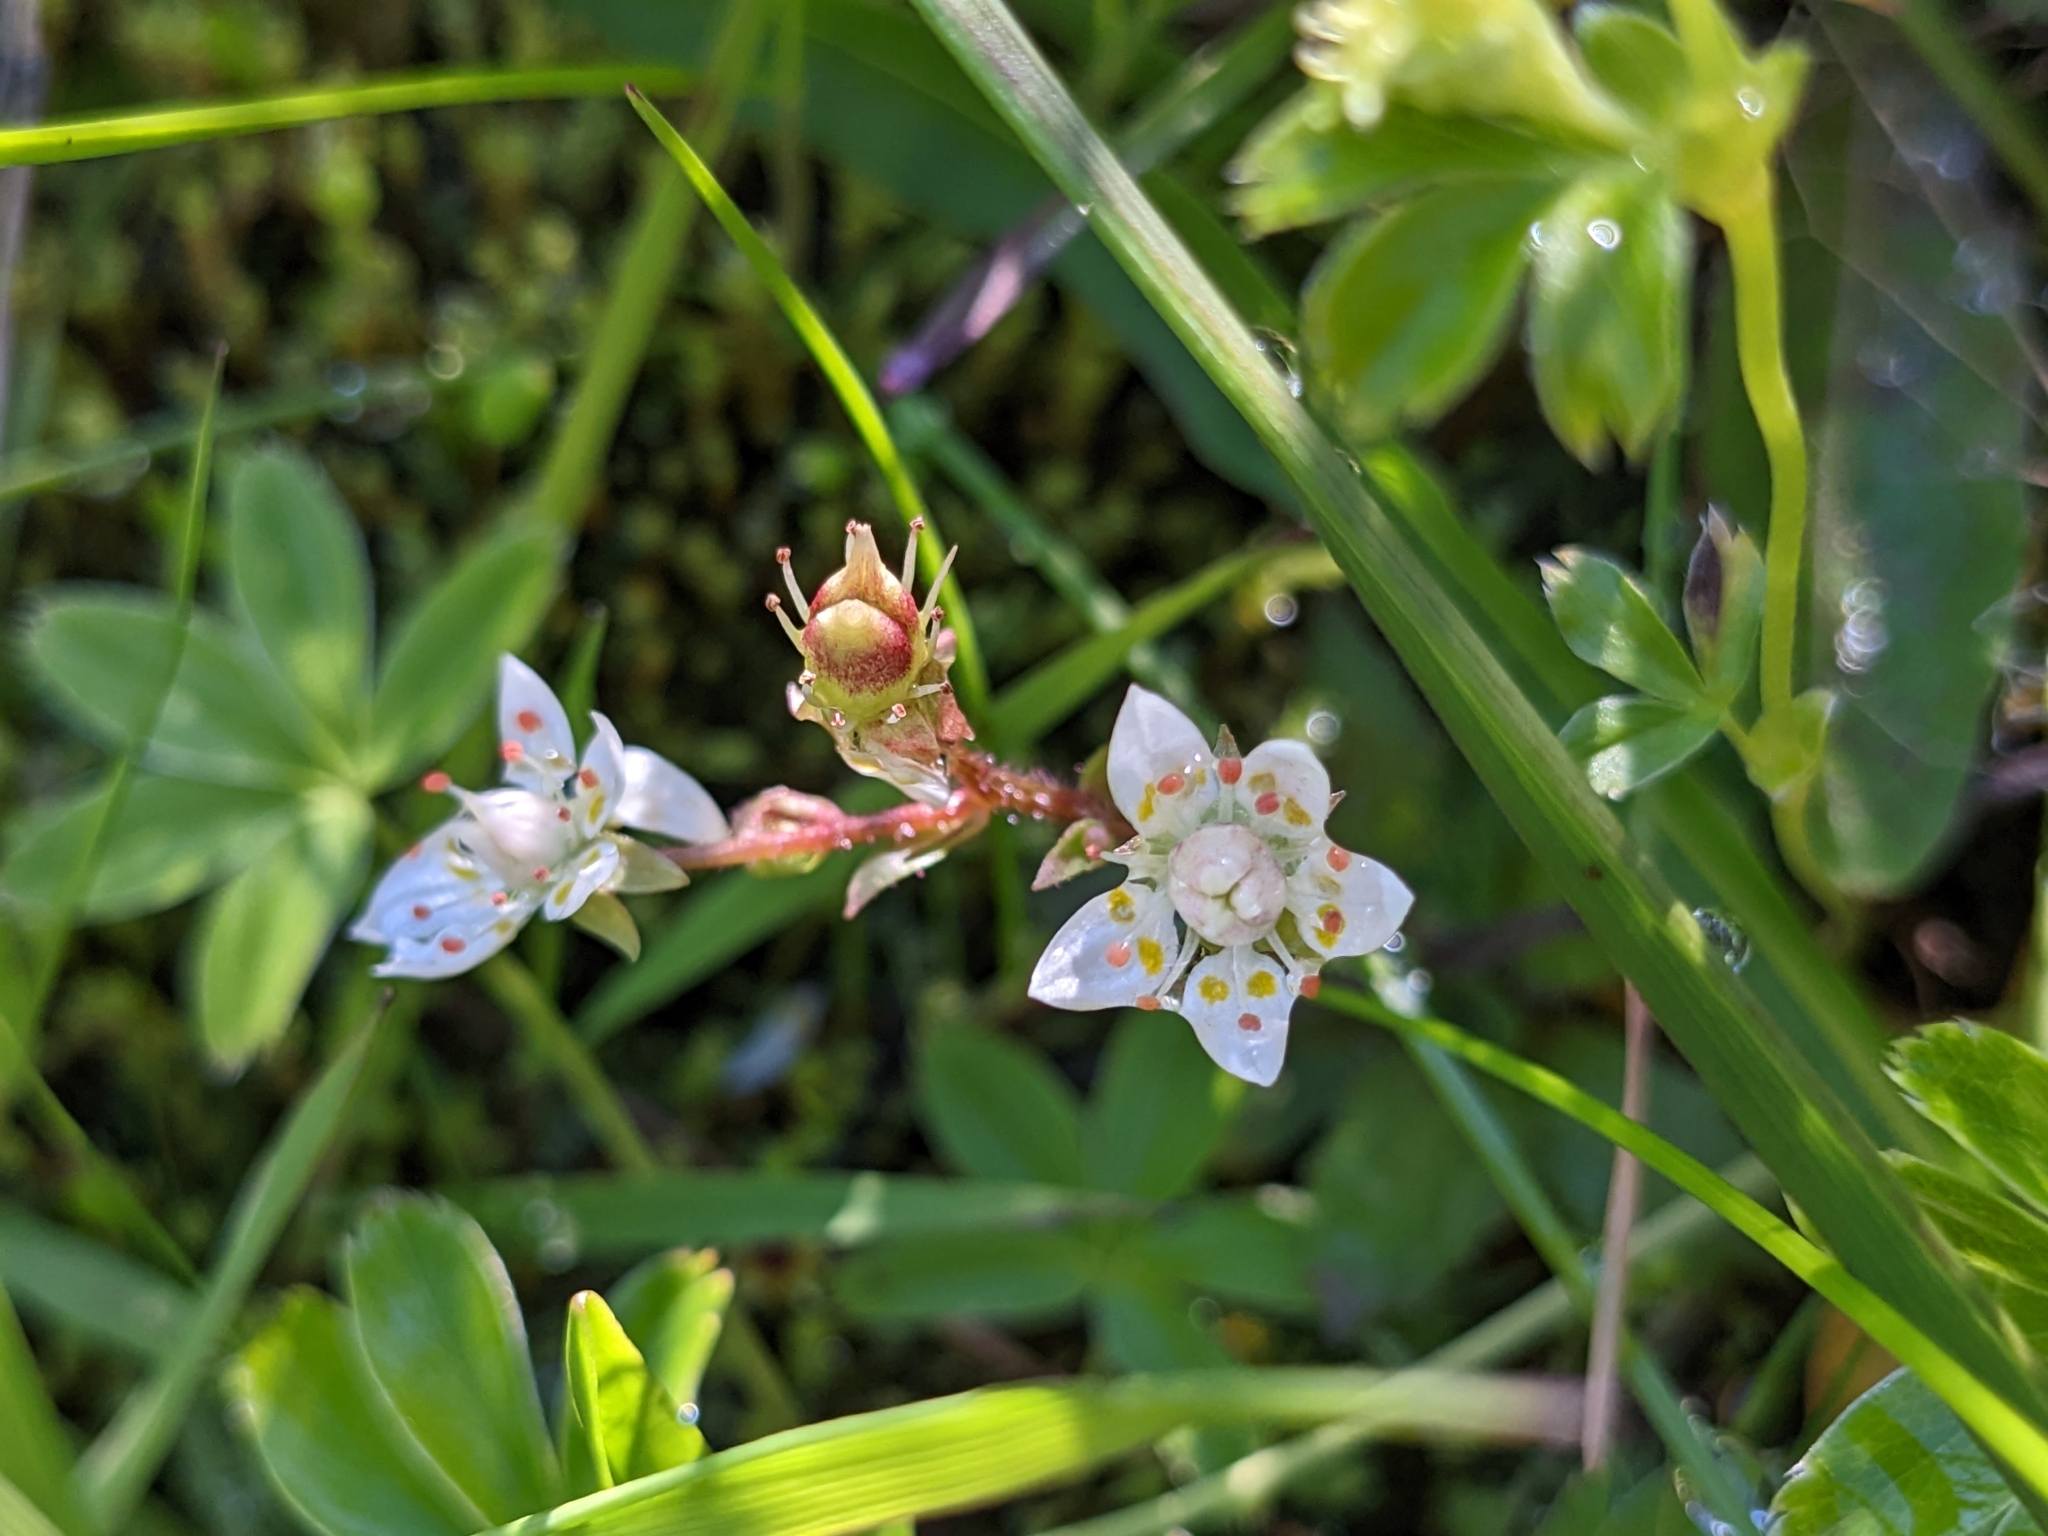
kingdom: Plantae
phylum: Tracheophyta
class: Magnoliopsida
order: Saxifragales
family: Saxifragaceae
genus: Micranthes
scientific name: Micranthes stellaris
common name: Starry saxifrage
